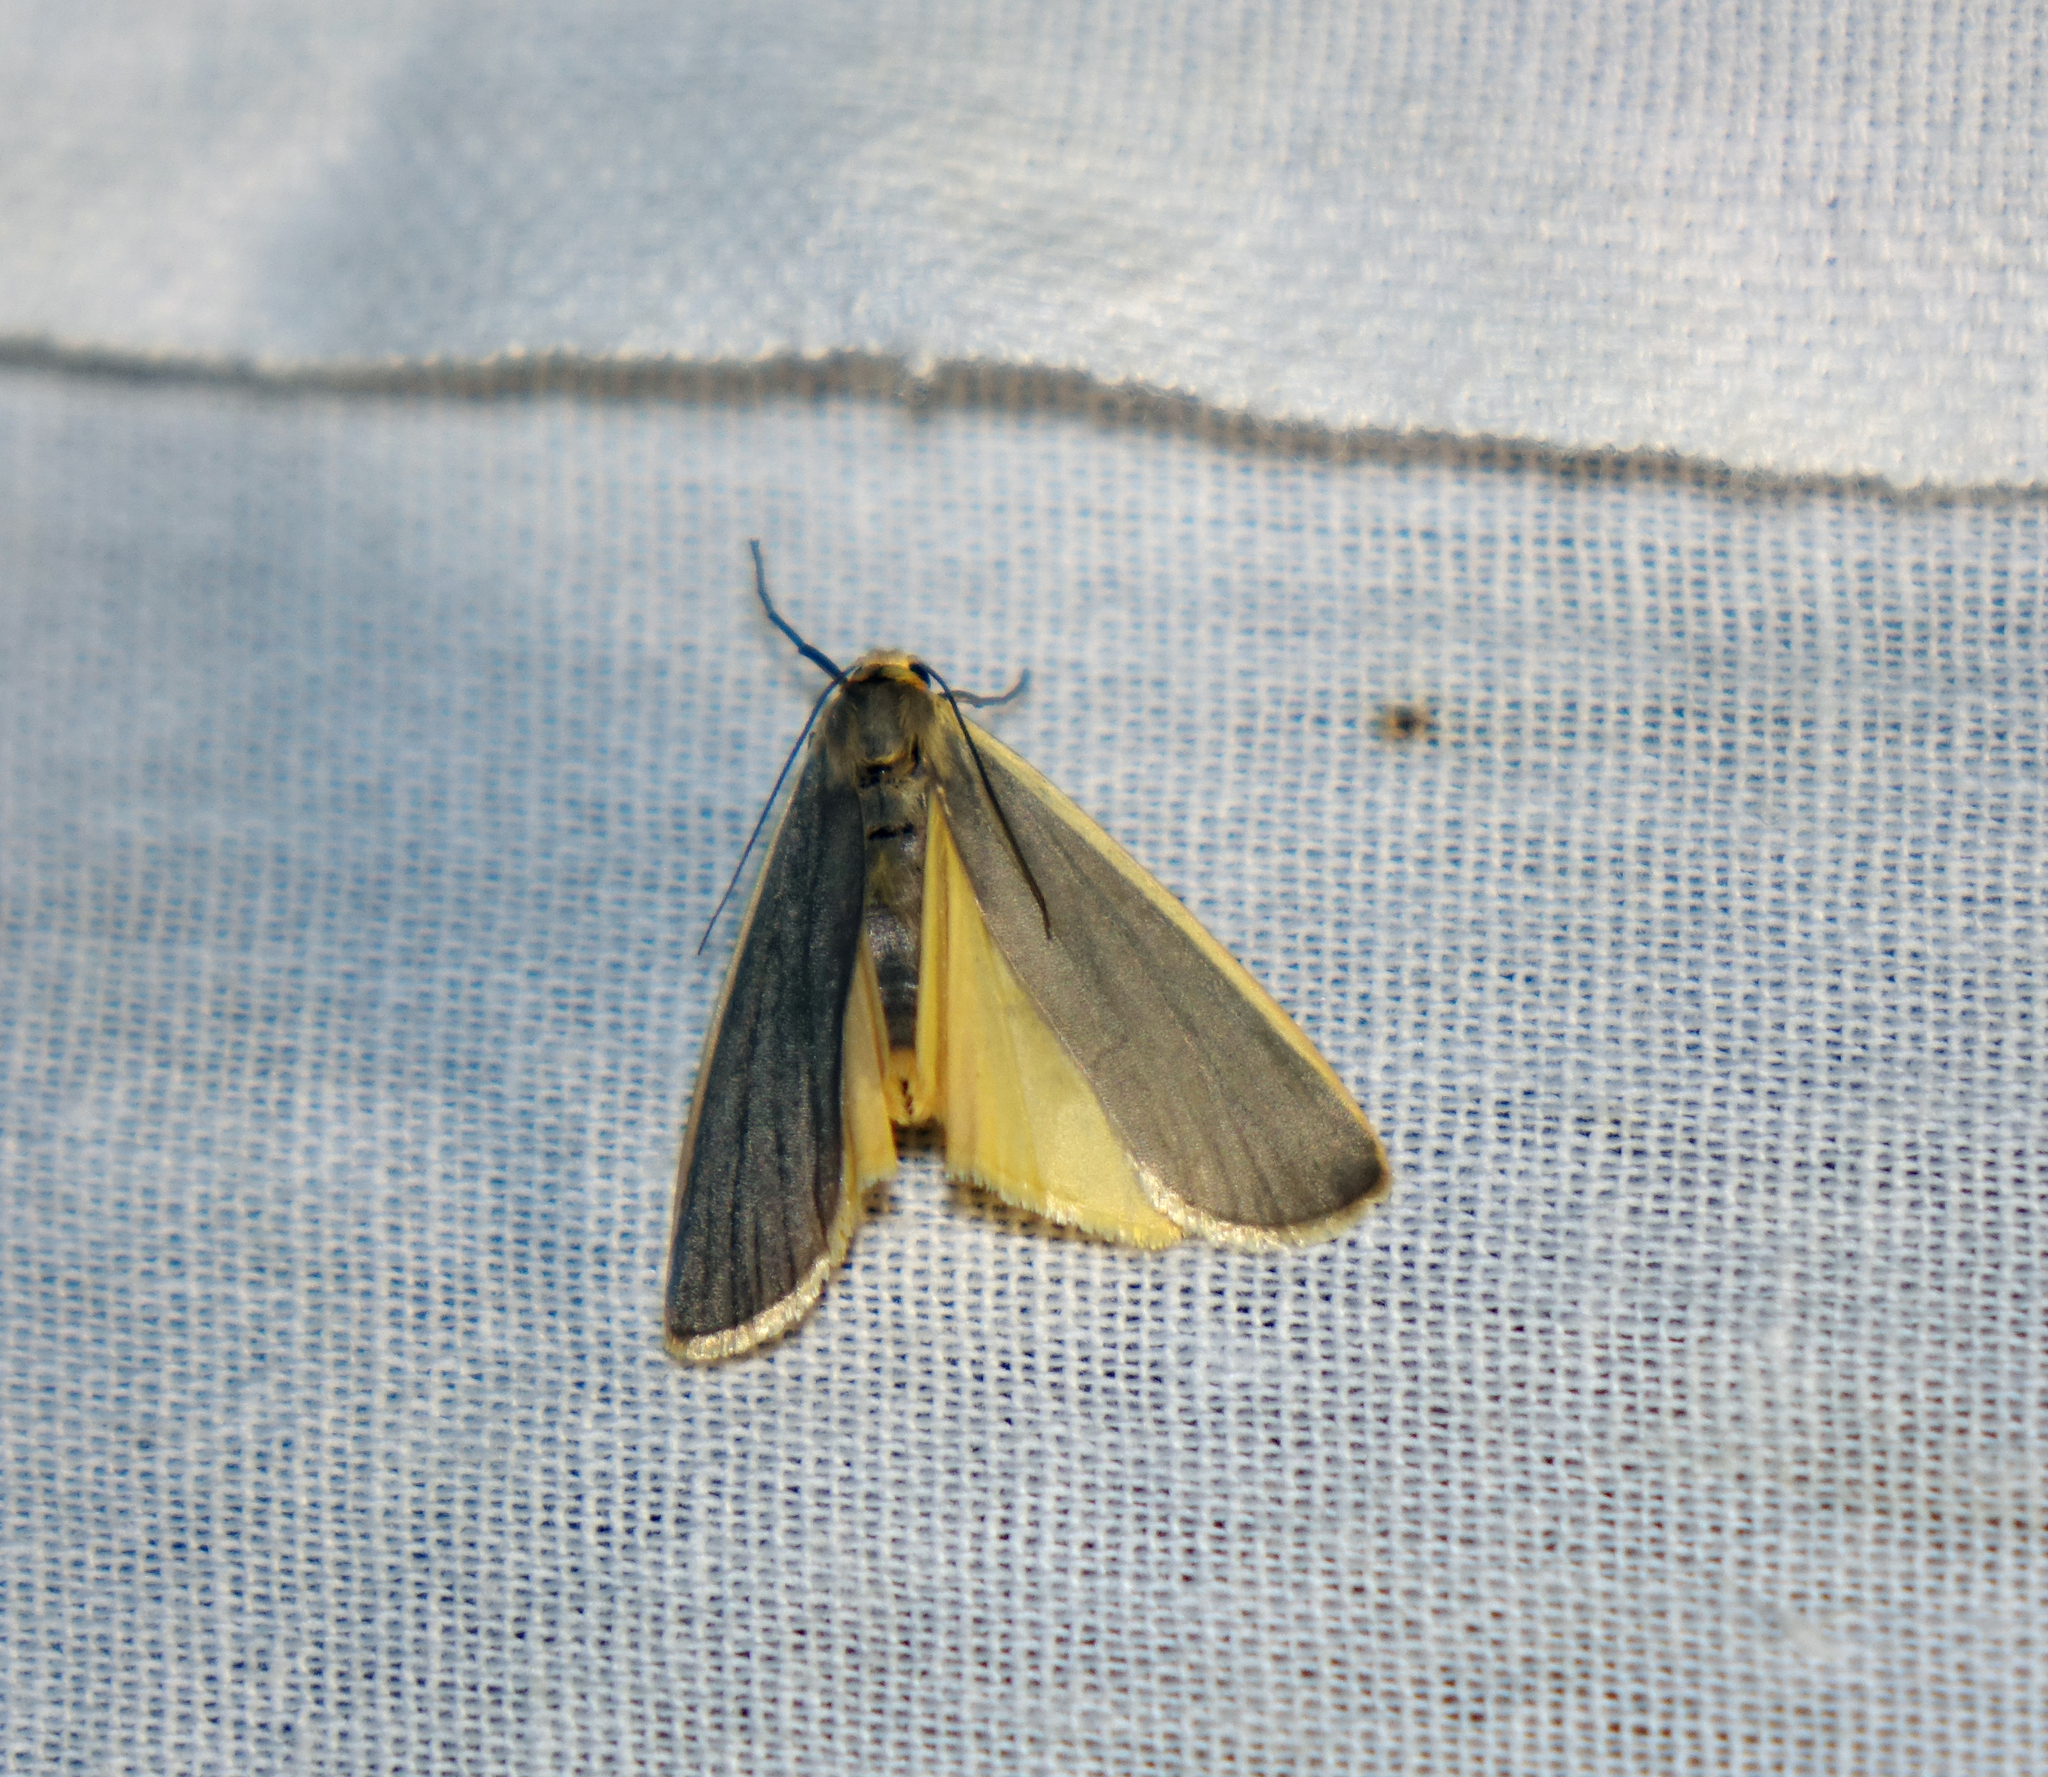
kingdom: Animalia
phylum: Arthropoda
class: Insecta
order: Lepidoptera
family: Erebidae
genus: Nyea
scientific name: Nyea lurideola
